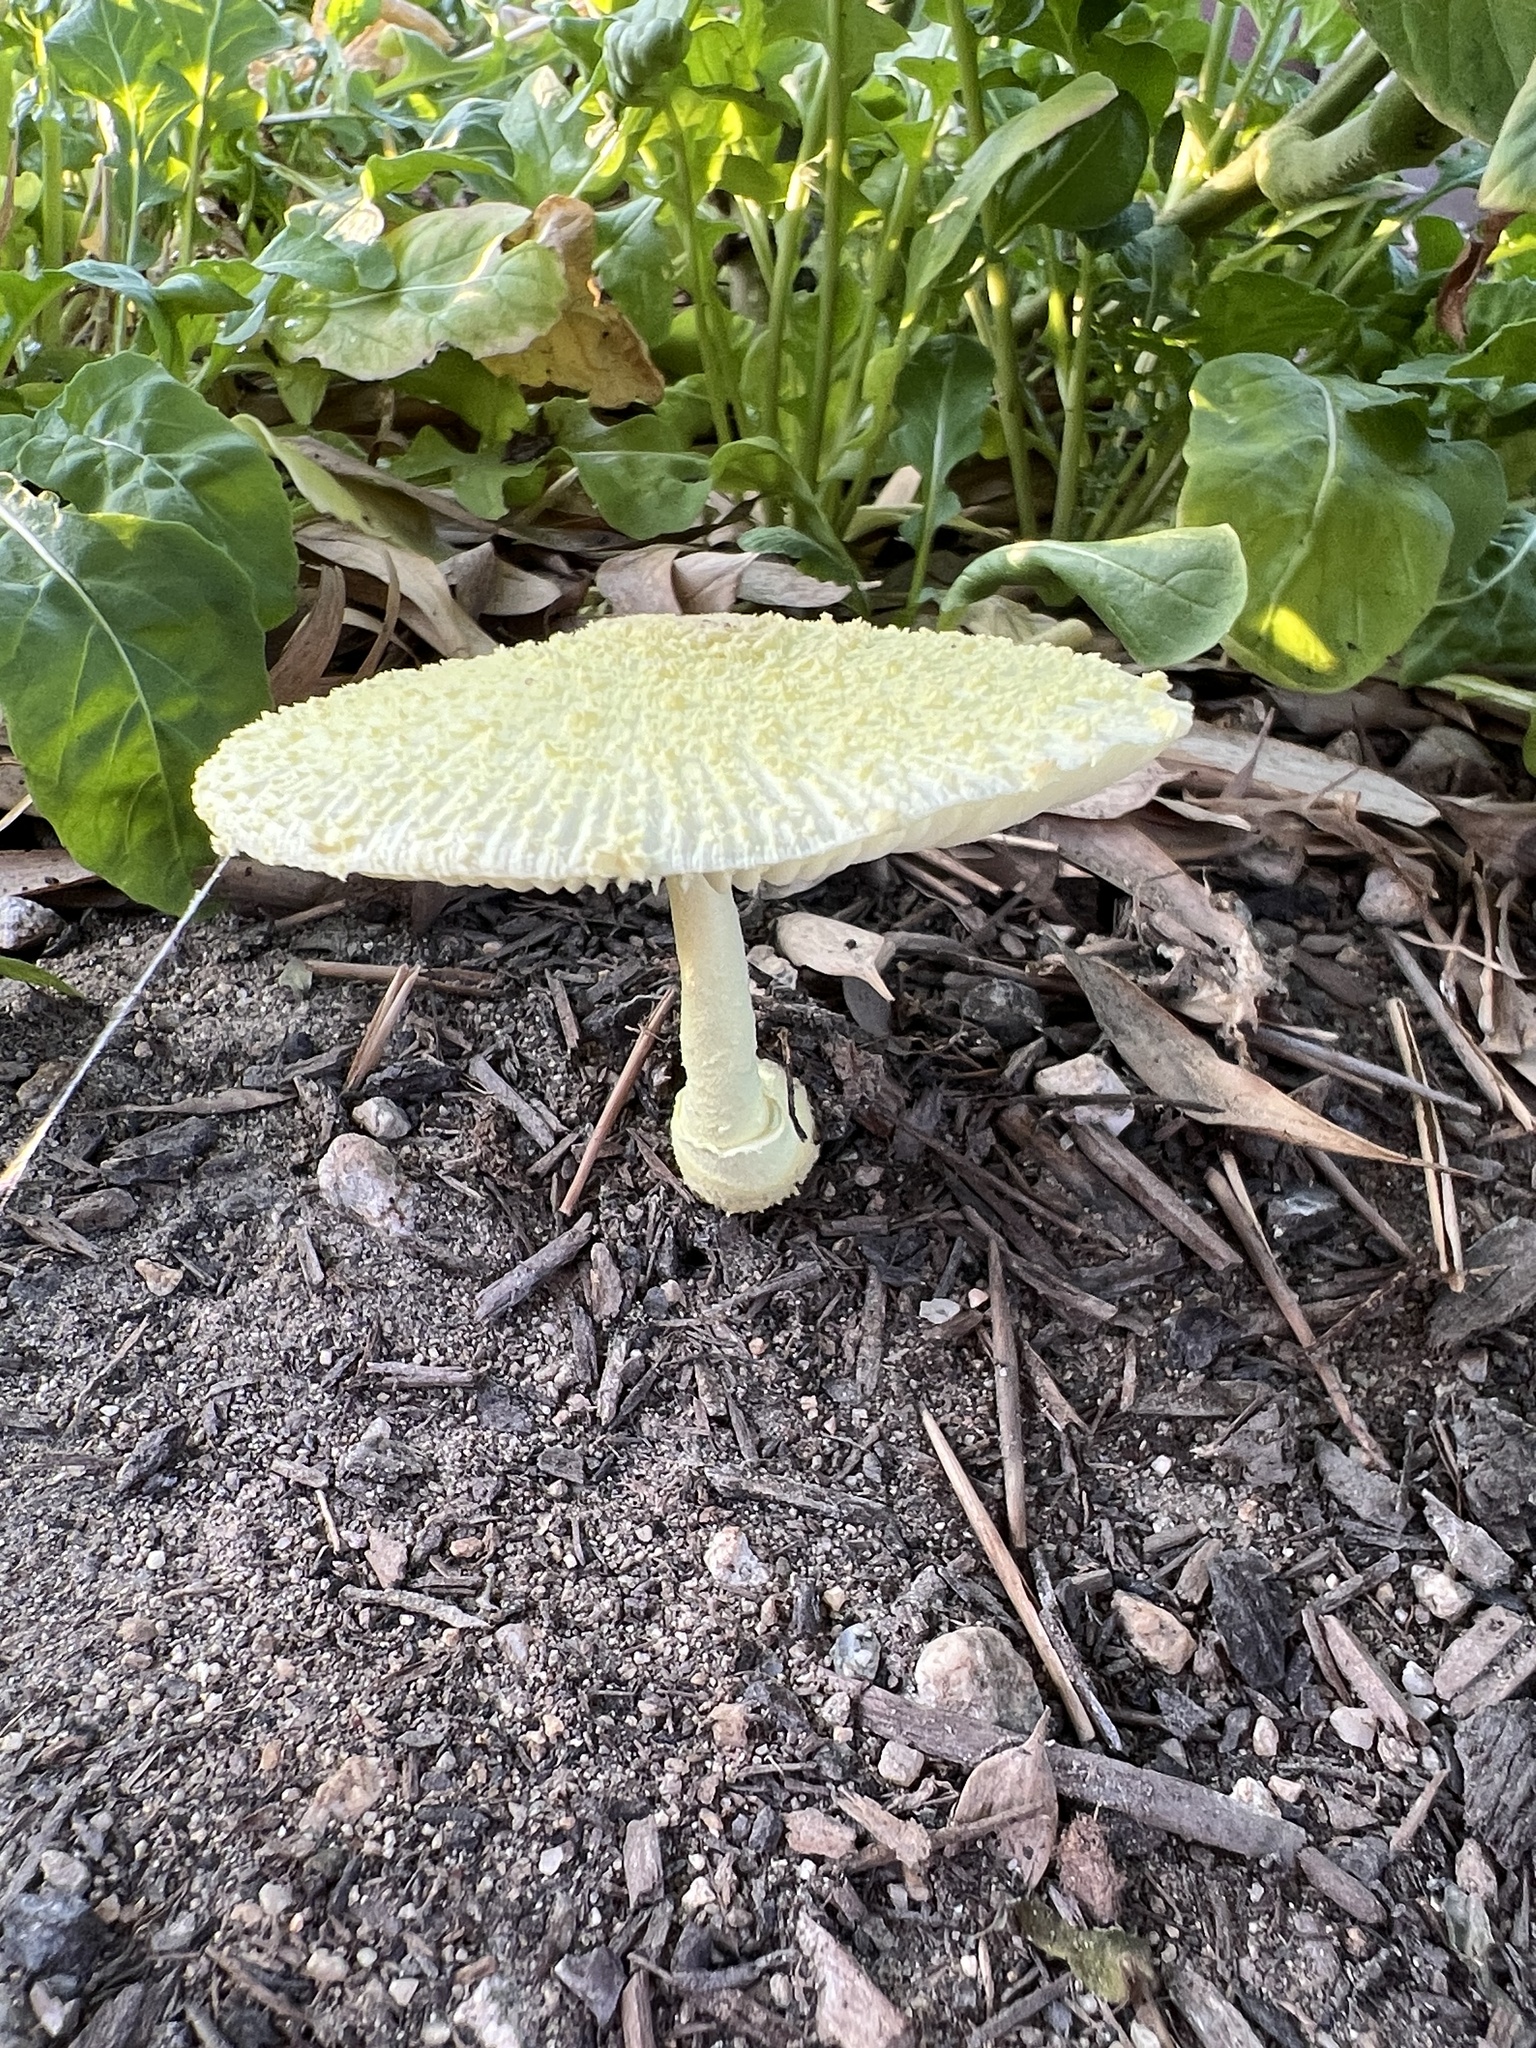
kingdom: Fungi
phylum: Basidiomycota
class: Agaricomycetes
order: Agaricales
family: Agaricaceae
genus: Leucocoprinus
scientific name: Leucocoprinus birnbaumii
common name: Plantpot dapperling
